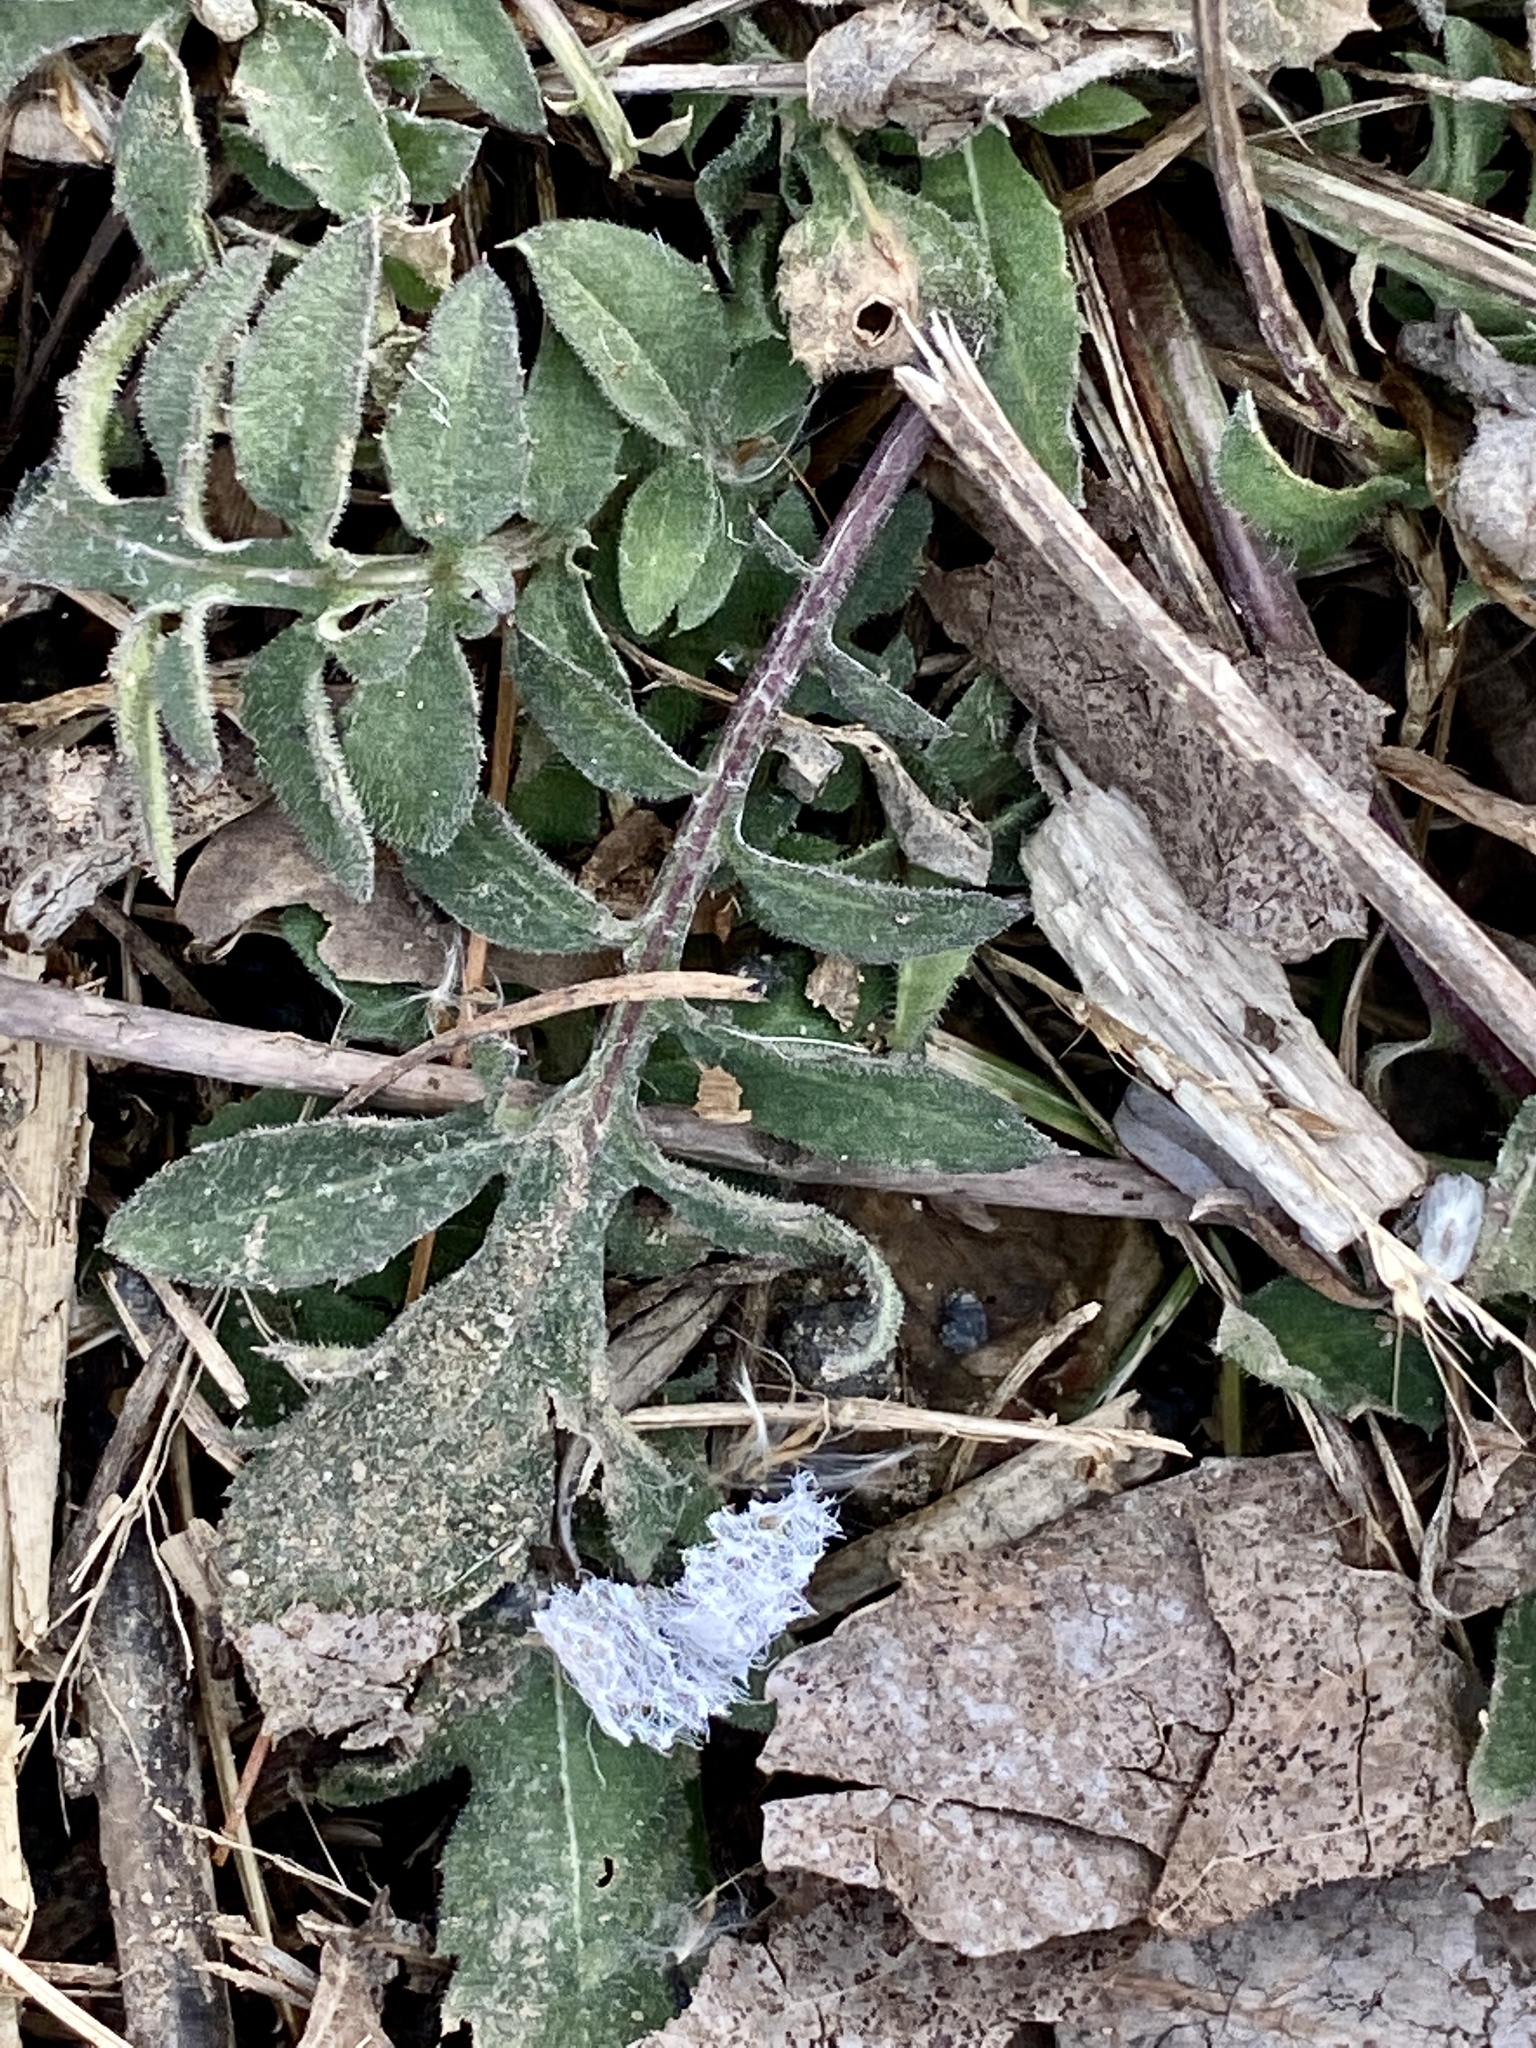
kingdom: Plantae
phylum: Tracheophyta
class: Magnoliopsida
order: Asterales
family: Asteraceae
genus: Centaurea
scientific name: Centaurea stoebe
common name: Spotted knapweed
